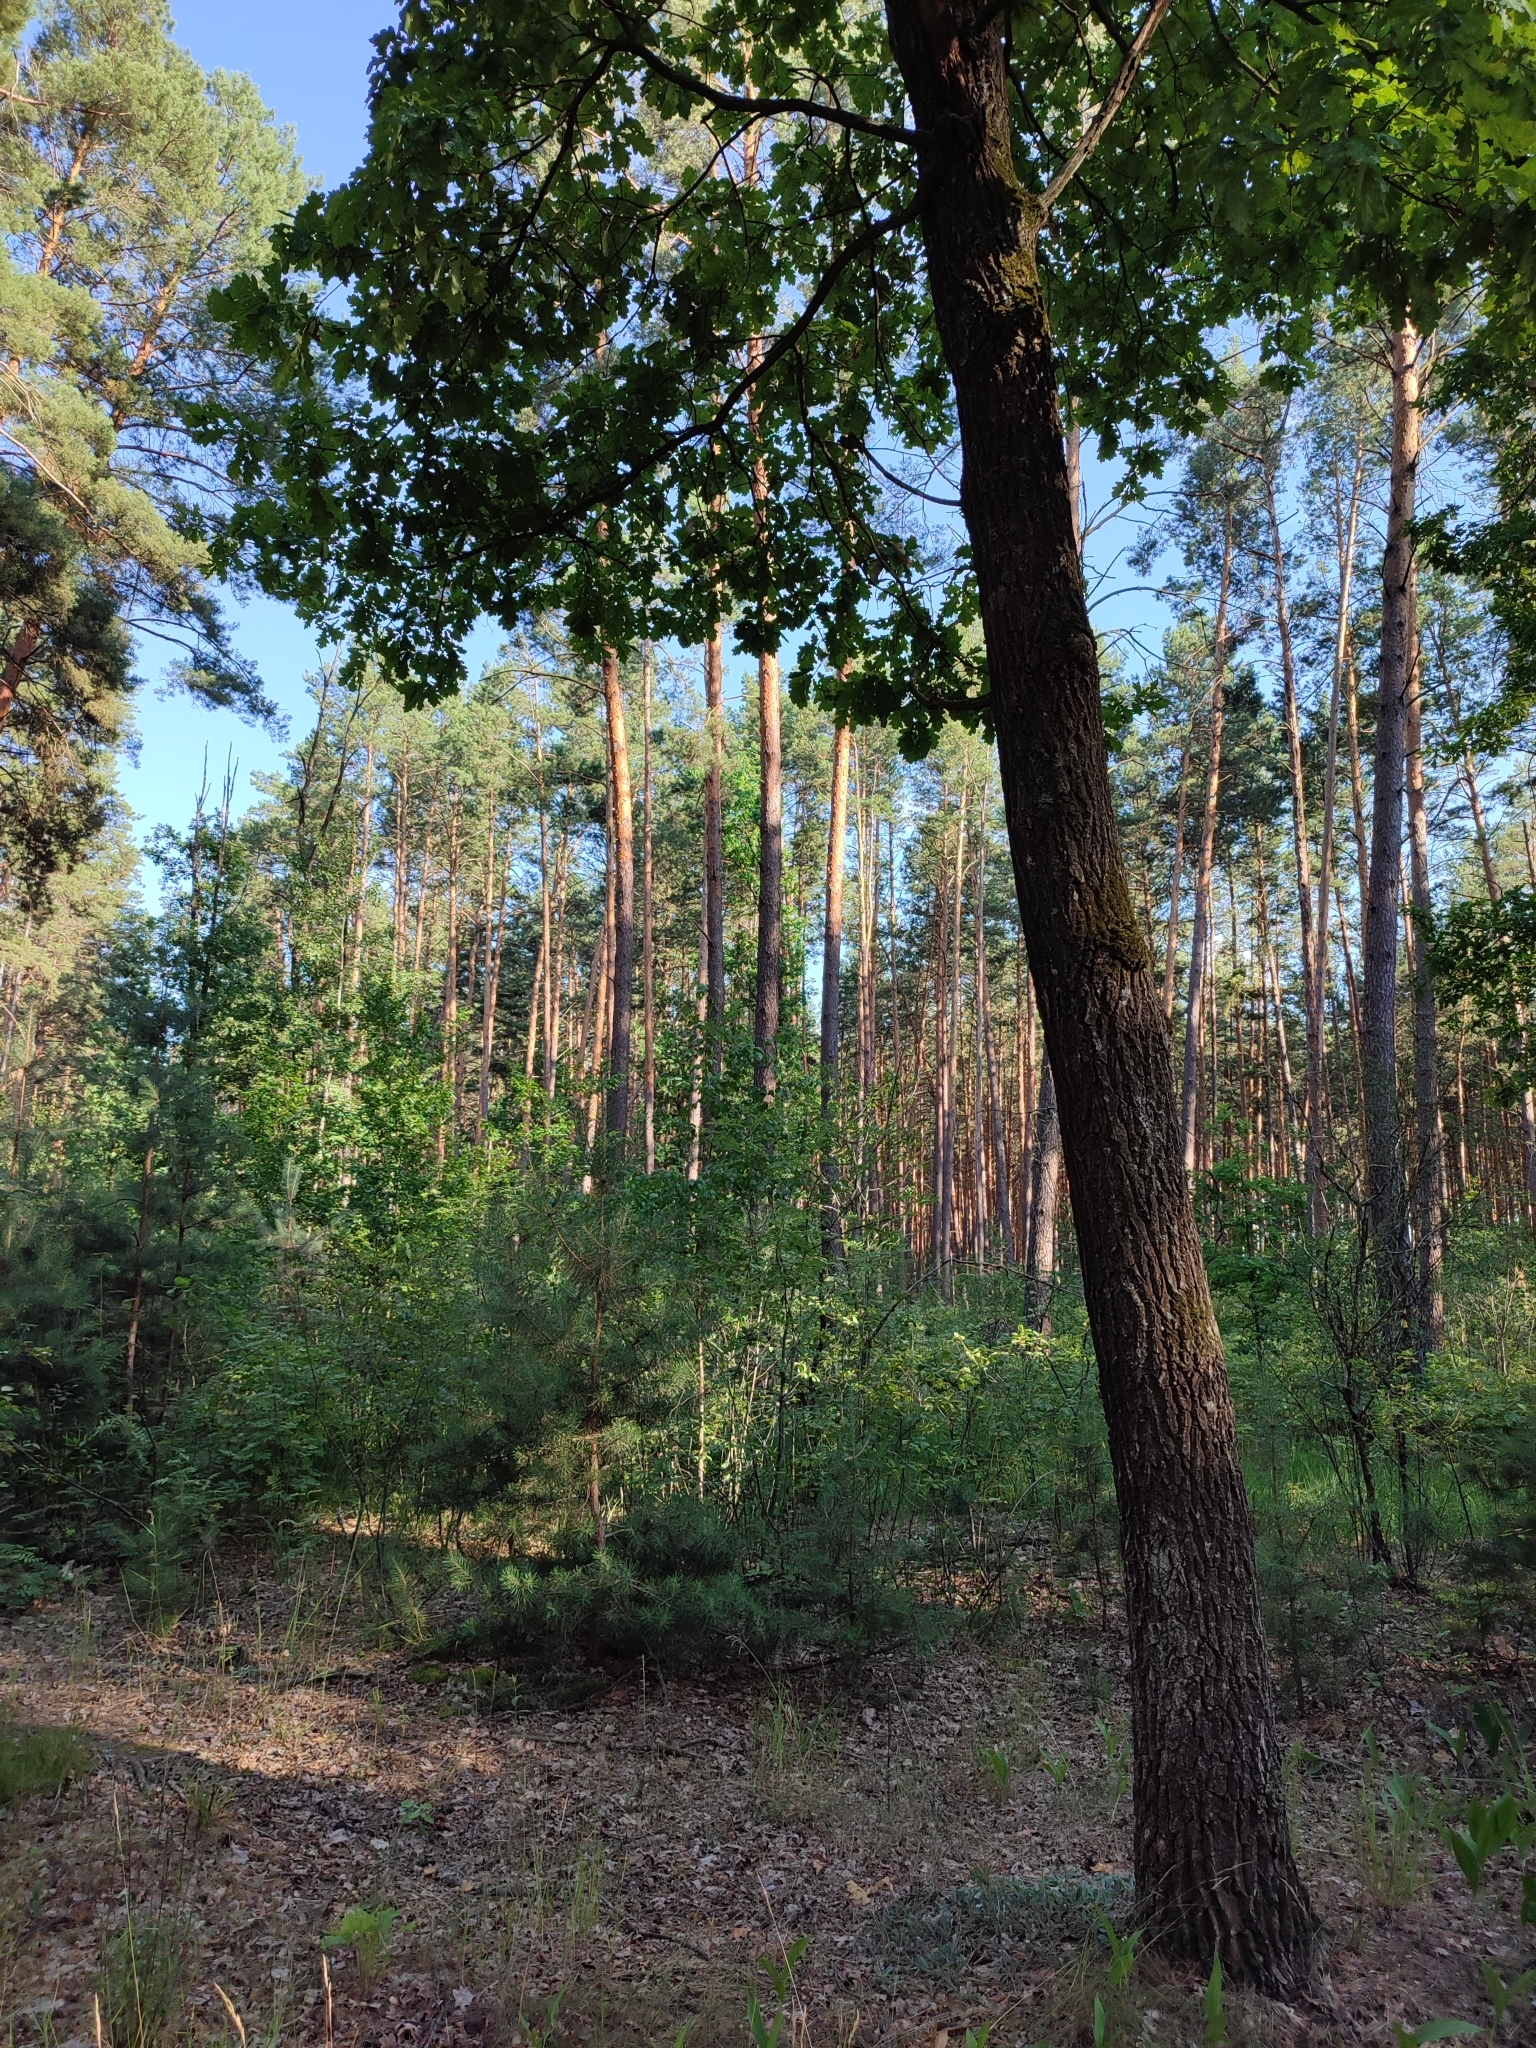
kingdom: Plantae
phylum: Tracheophyta
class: Magnoliopsida
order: Fagales
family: Fagaceae
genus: Quercus
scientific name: Quercus robur
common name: Pedunculate oak
